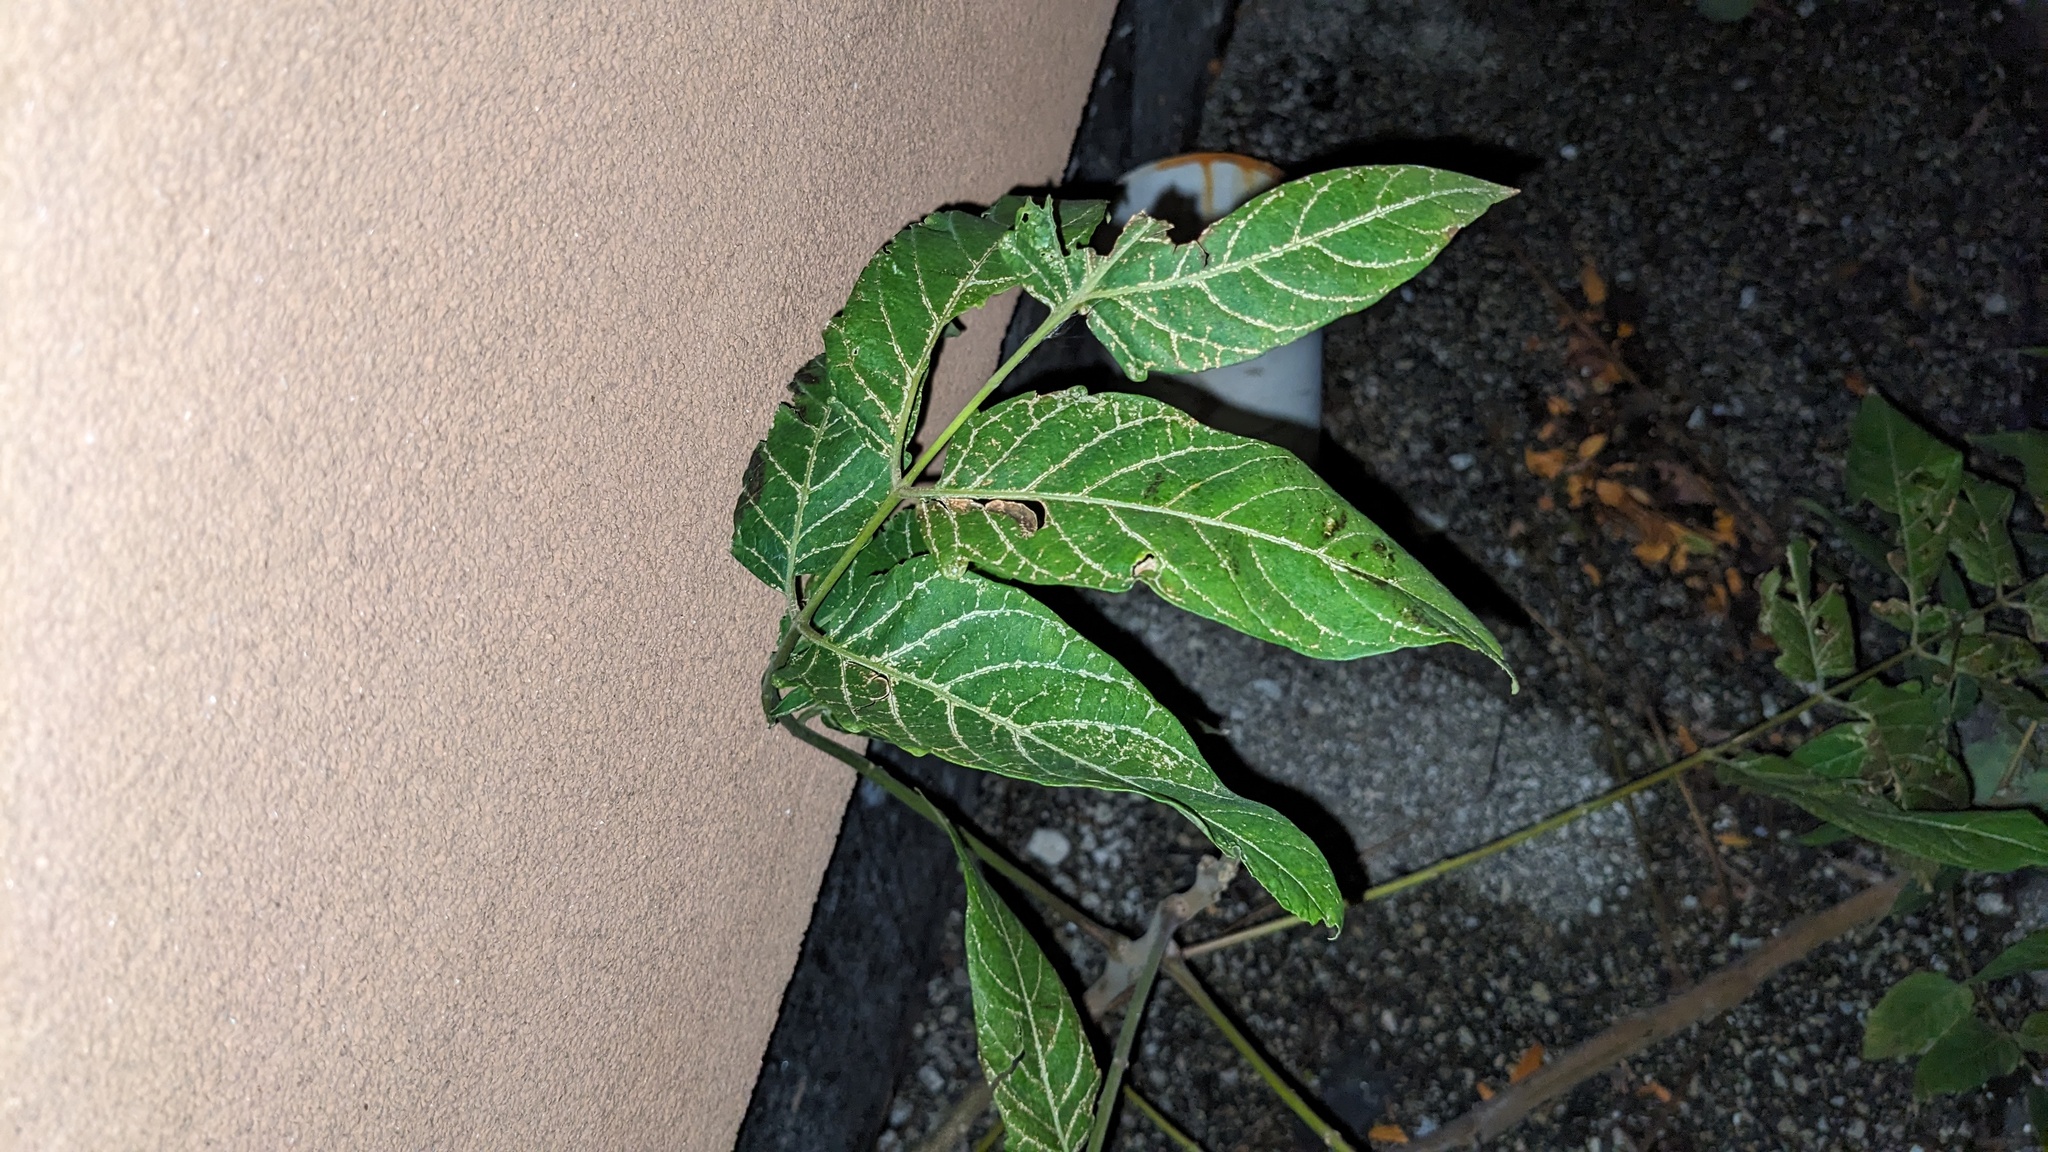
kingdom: Plantae
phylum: Tracheophyta
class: Magnoliopsida
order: Sapindales
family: Simaroubaceae
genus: Ailanthus
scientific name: Ailanthus altissima
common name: Tree-of-heaven
